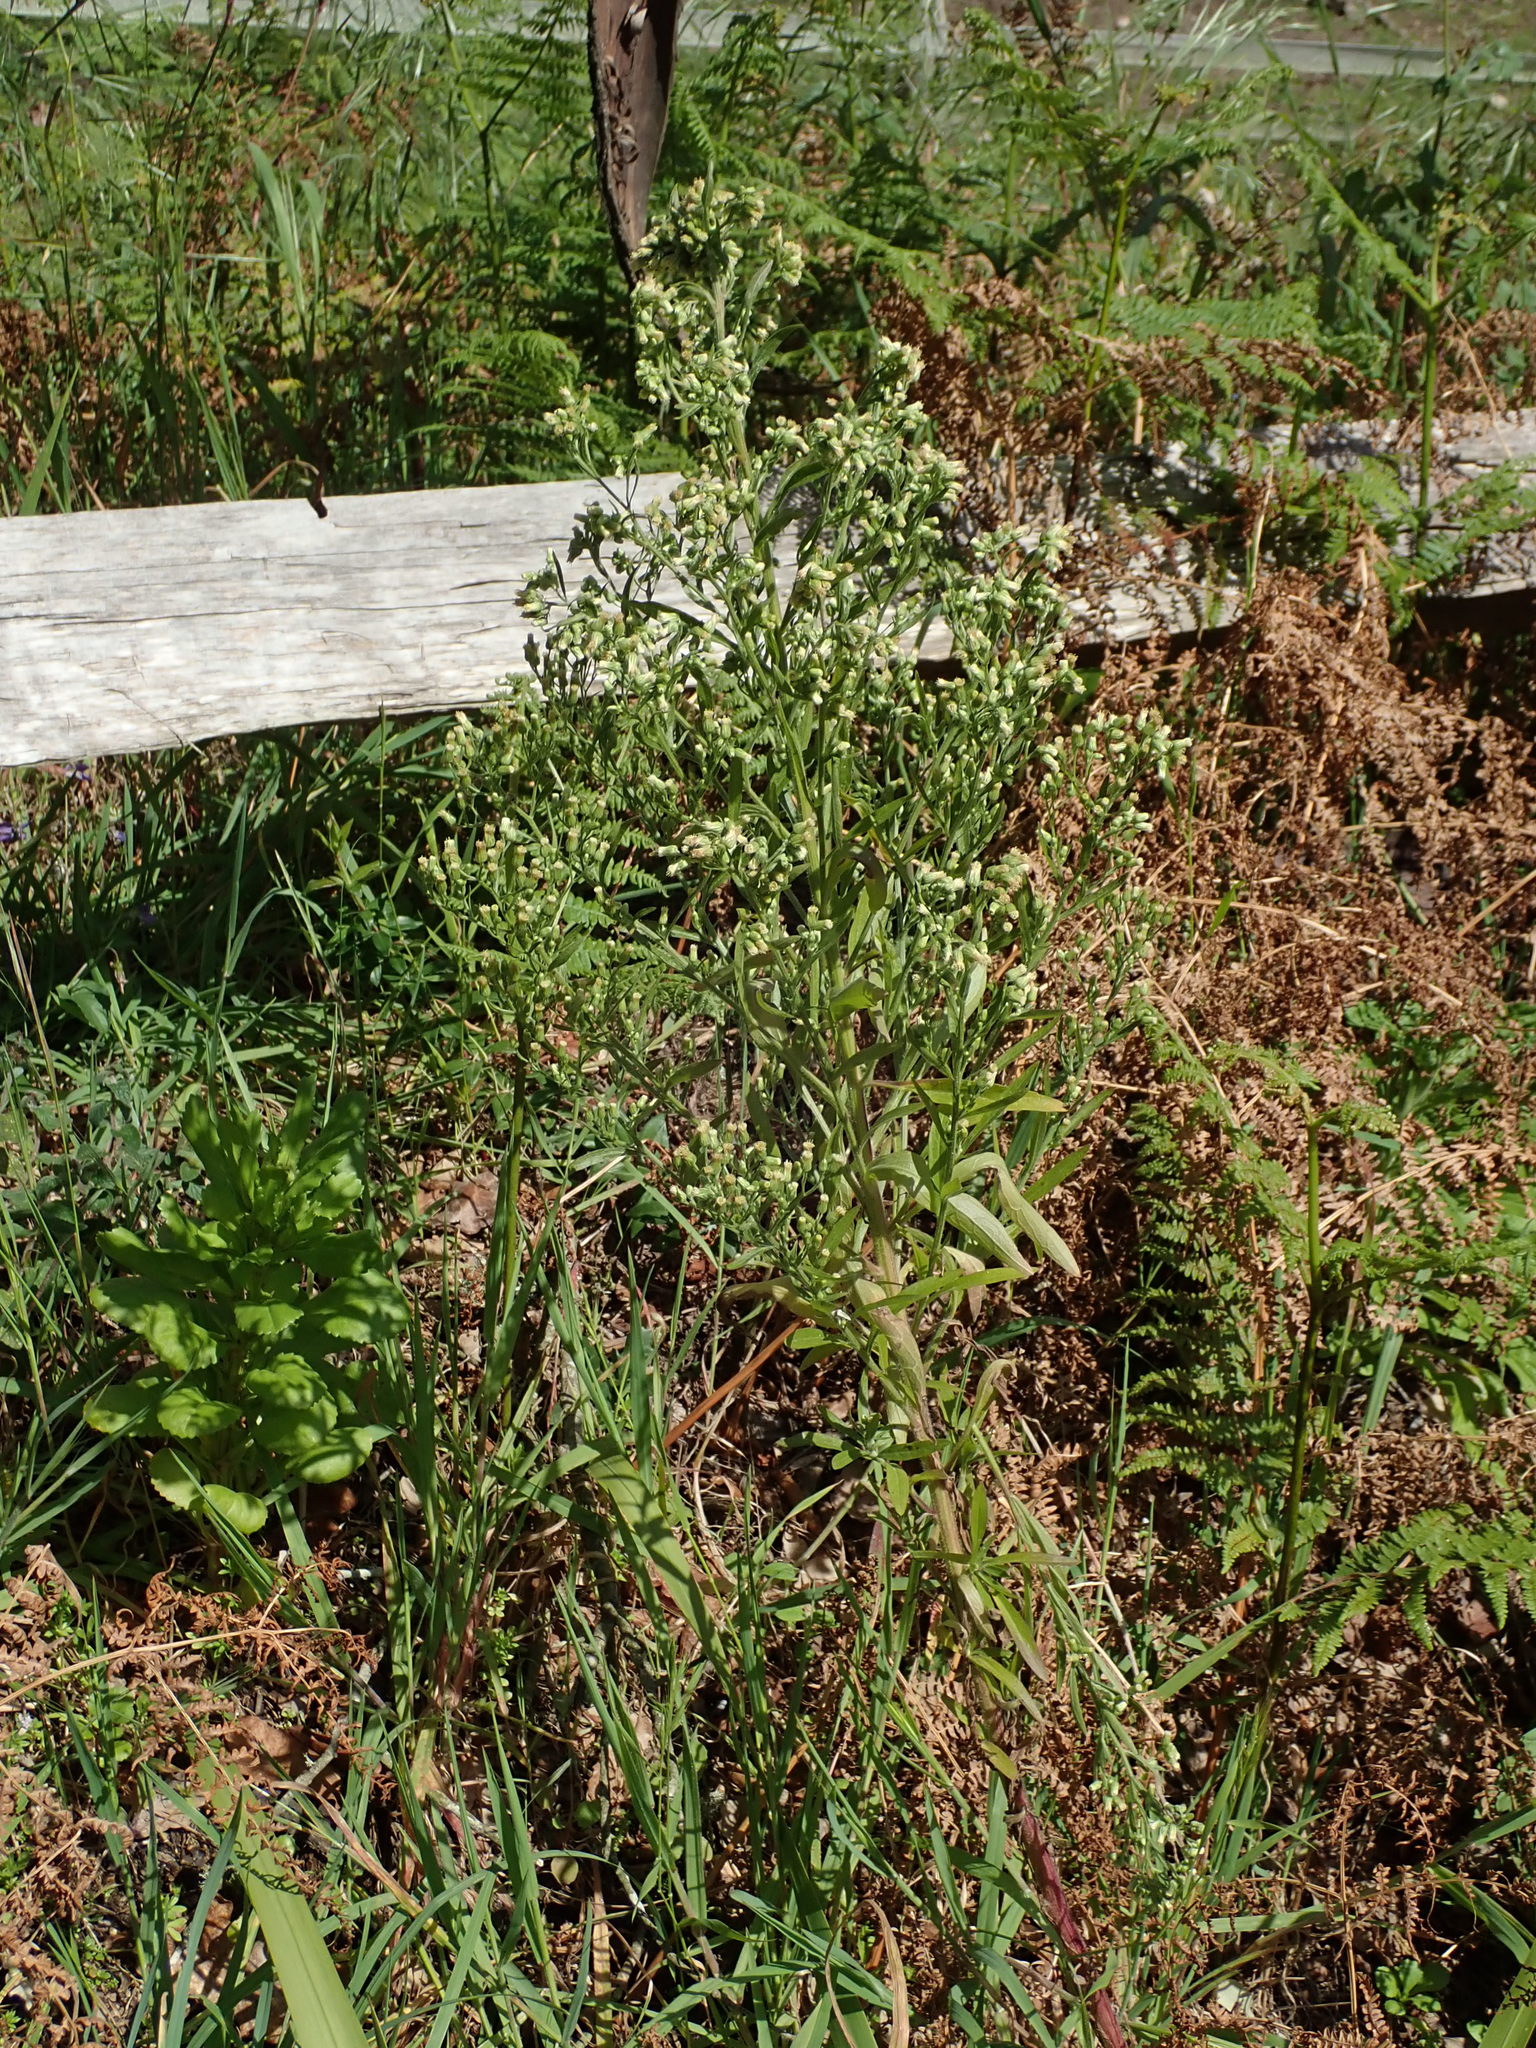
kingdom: Plantae
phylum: Tracheophyta
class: Magnoliopsida
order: Asterales
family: Asteraceae
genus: Erigeron
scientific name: Erigeron sumatrensis
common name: Daisy
